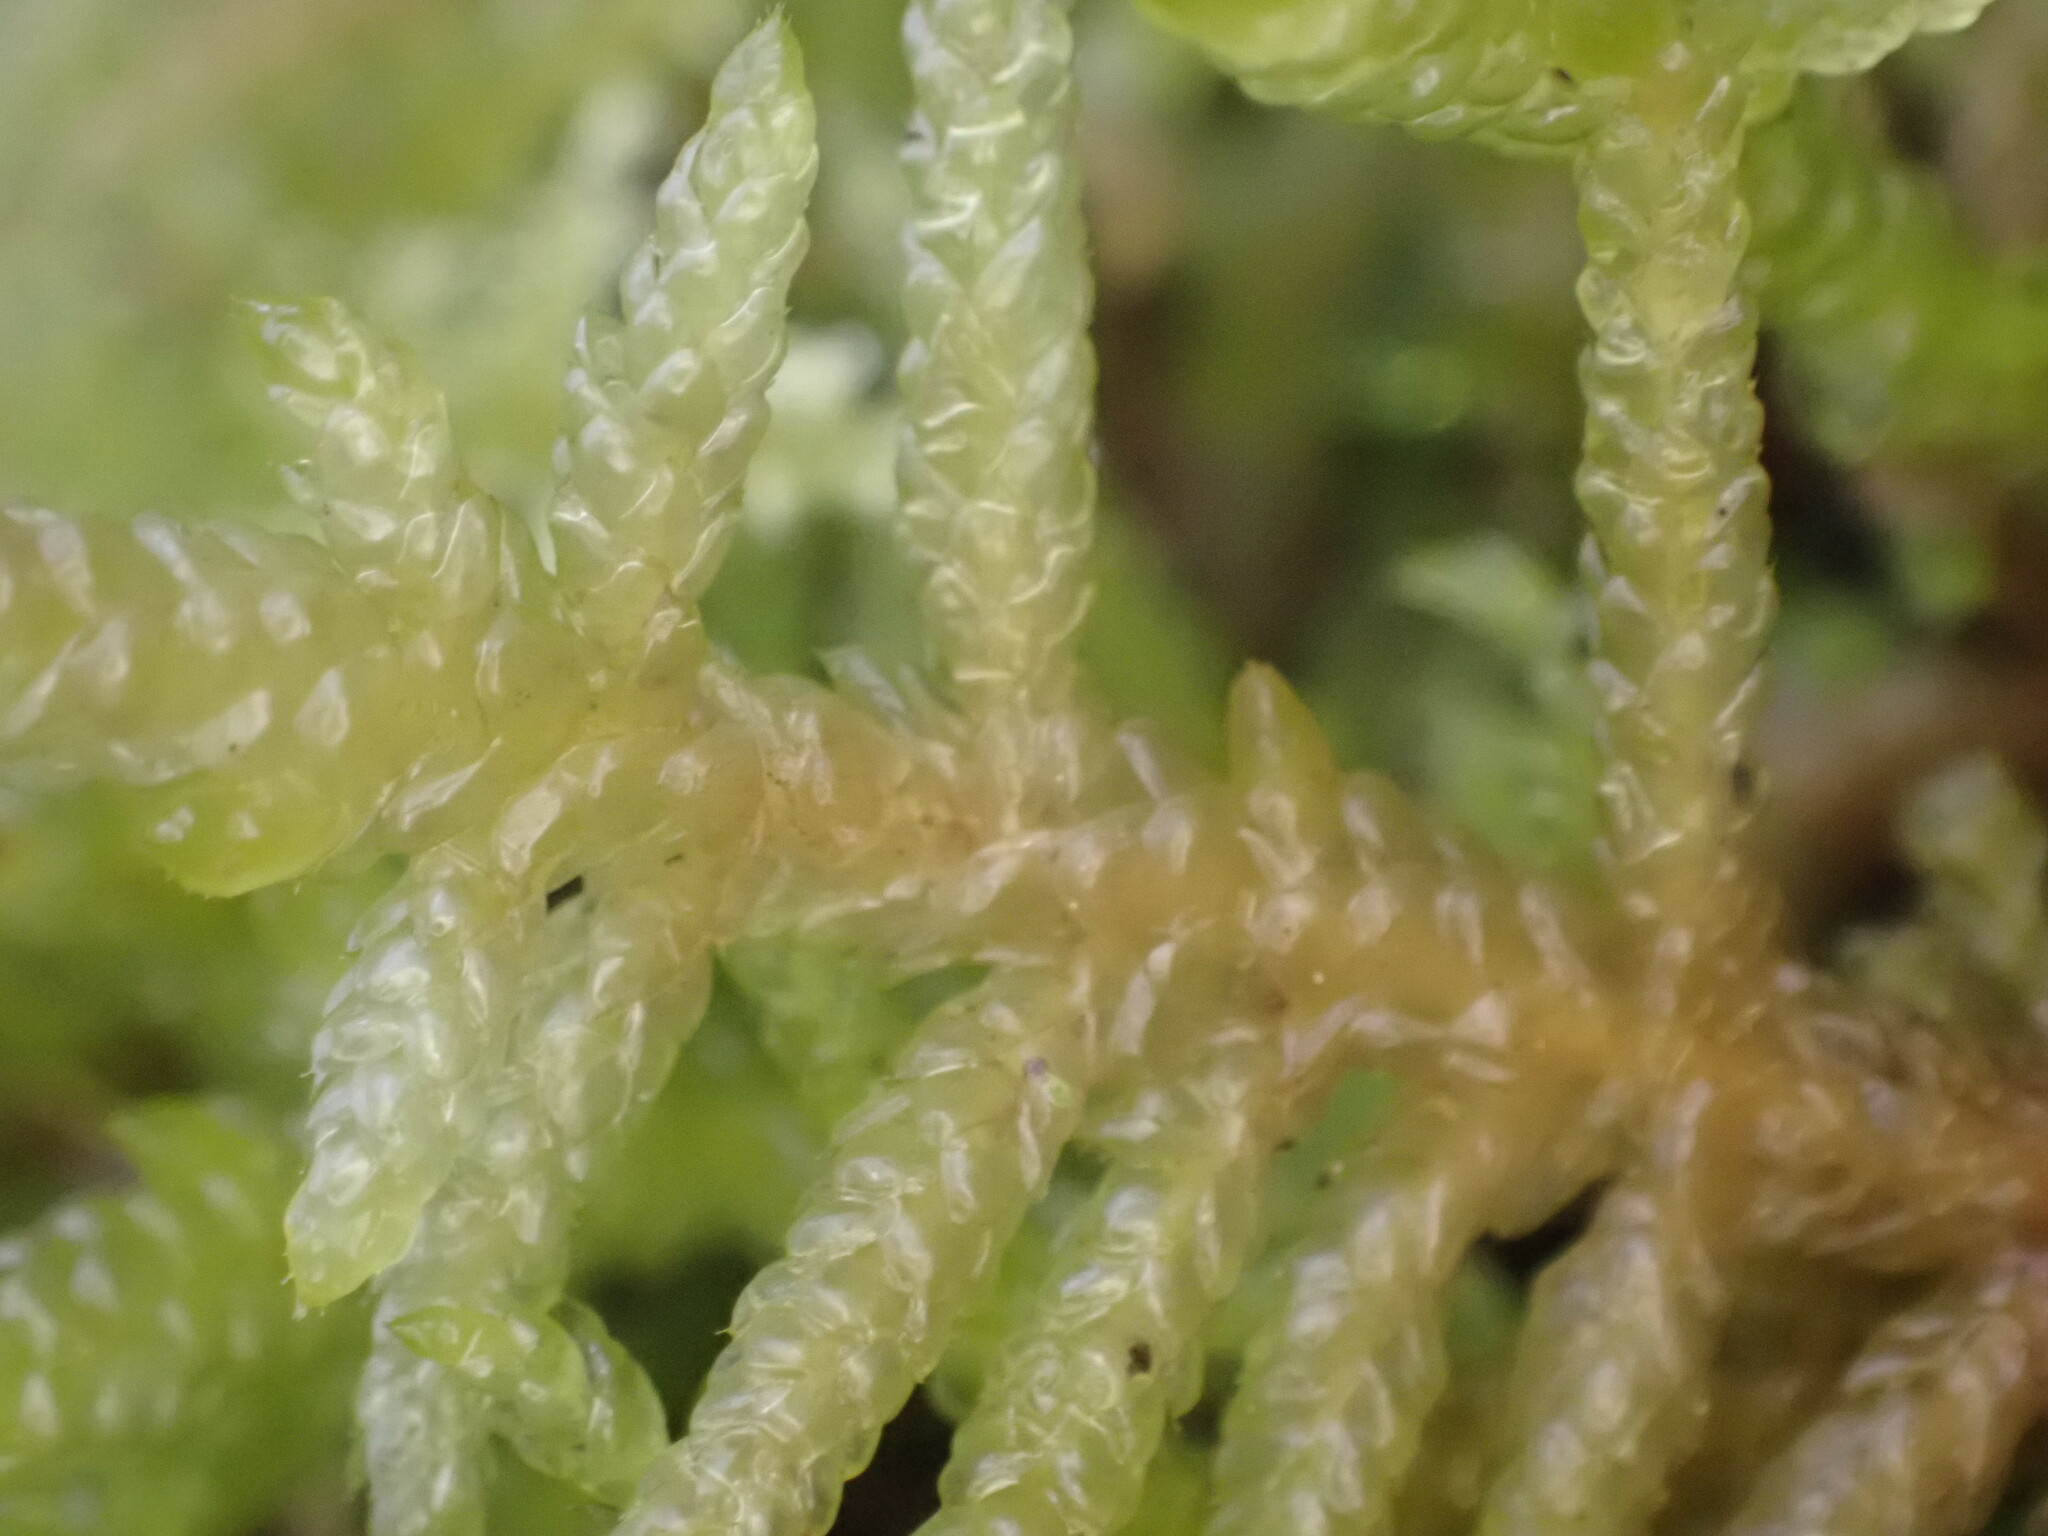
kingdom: Plantae
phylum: Bryophyta
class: Bryopsida
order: Hypnales
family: Brachytheciaceae
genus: Pseudoscleropodium
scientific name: Pseudoscleropodium purum
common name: Neat feather-moss
